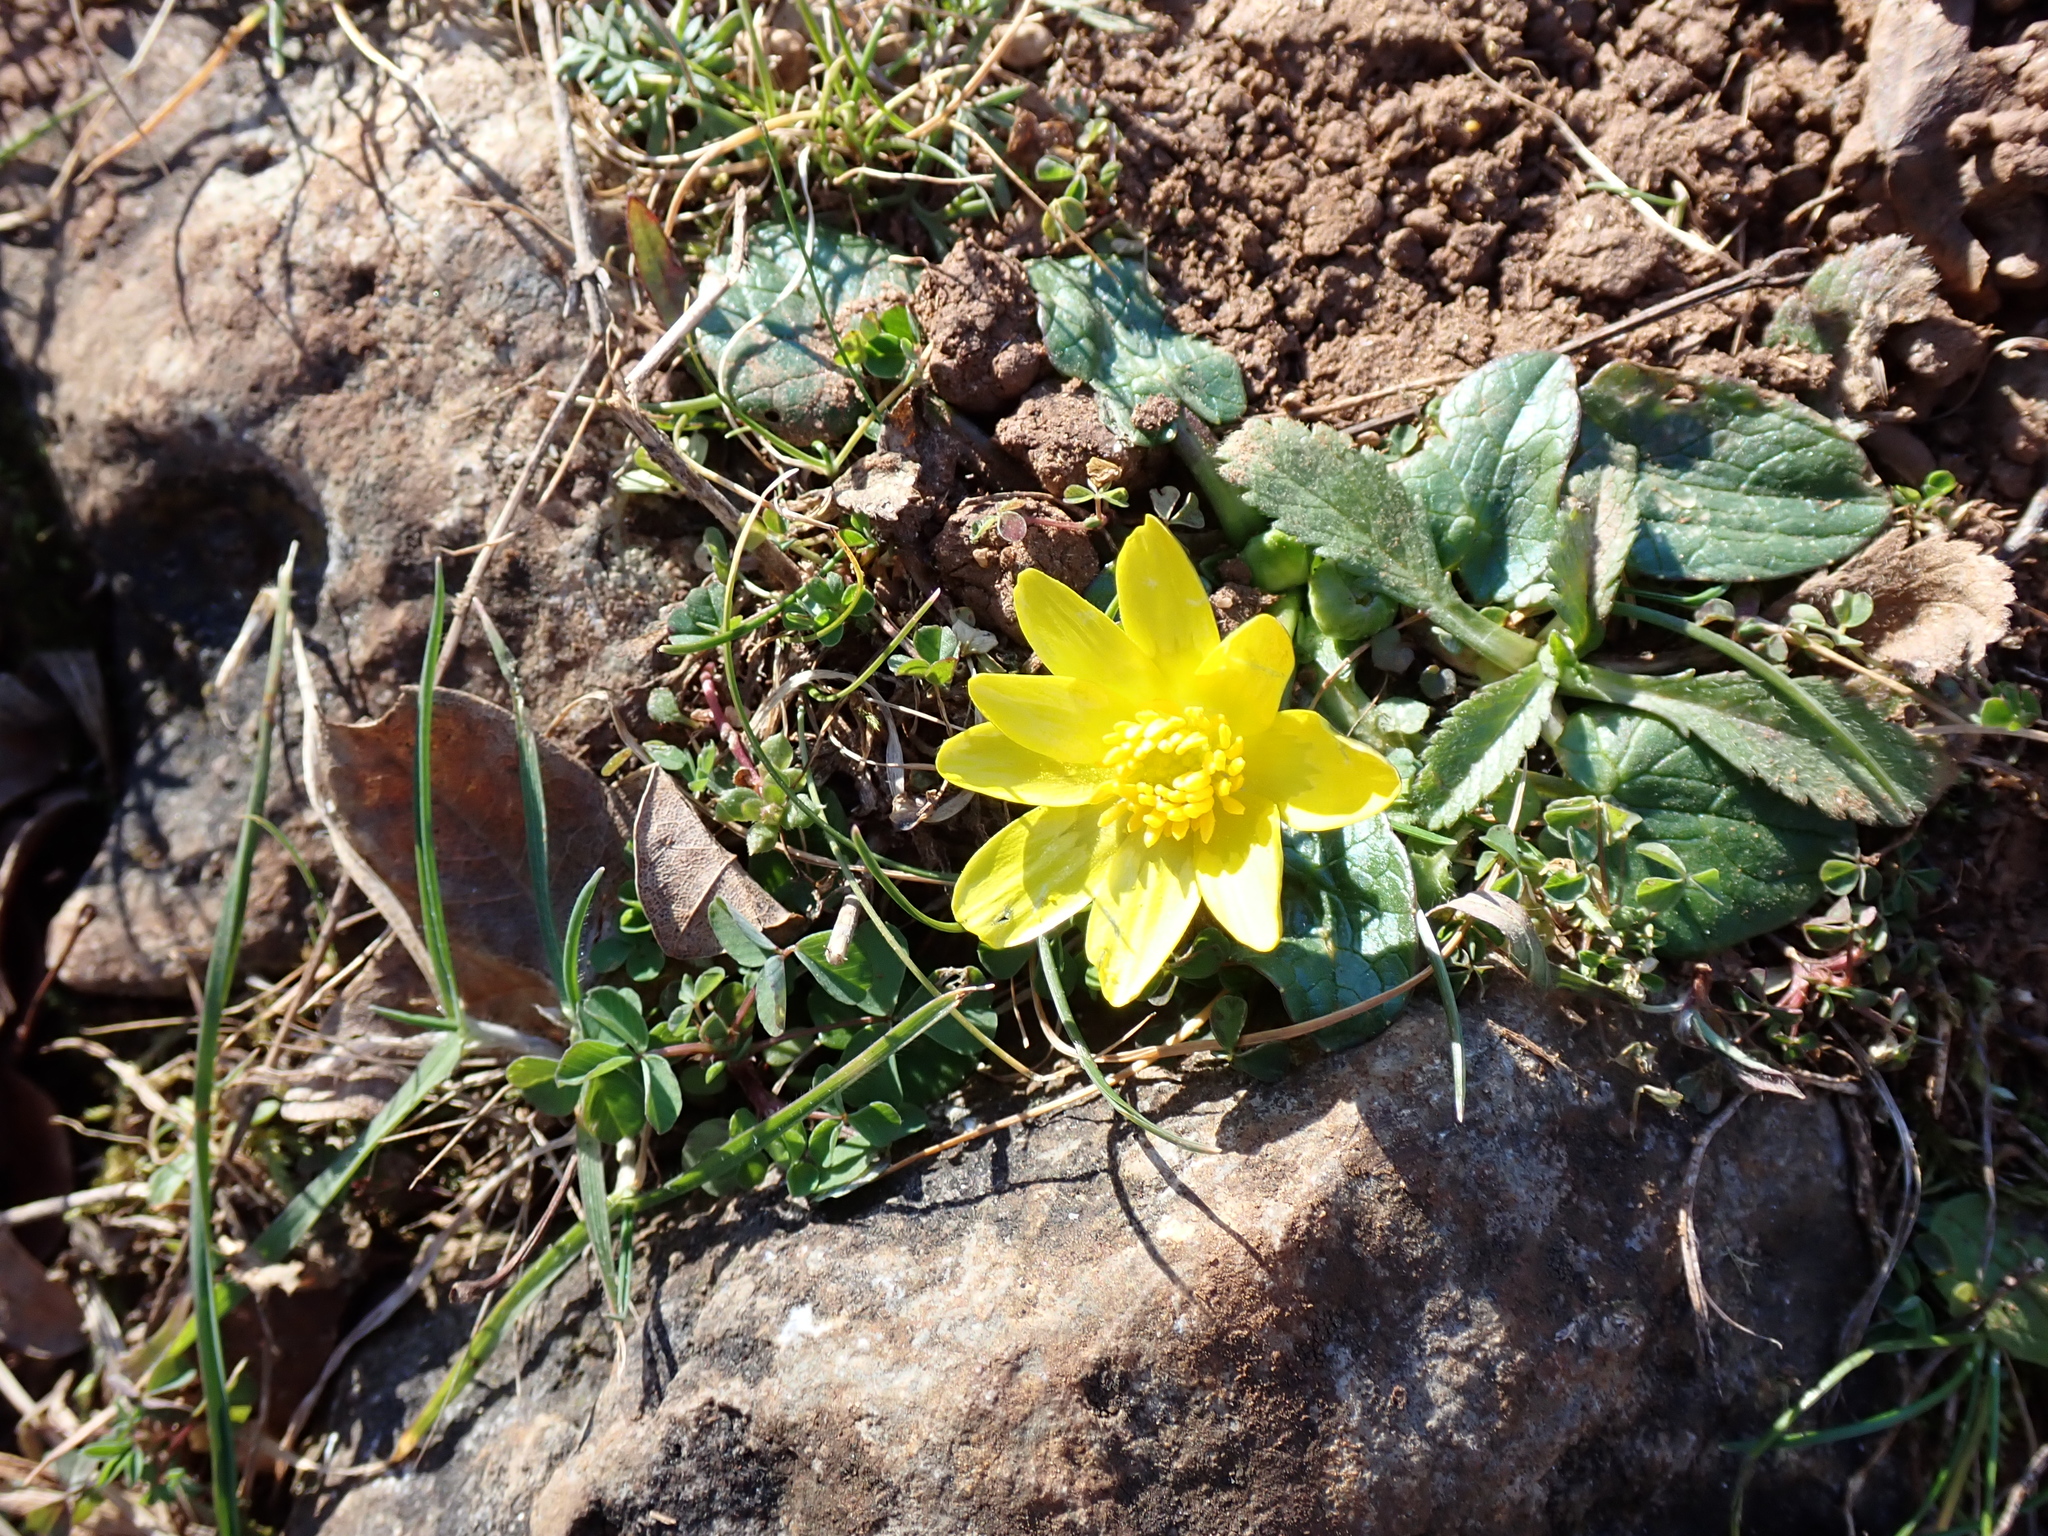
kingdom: Plantae
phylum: Tracheophyta
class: Magnoliopsida
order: Ranunculales
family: Ranunculaceae
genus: Ficaria
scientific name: Ficaria verna
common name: Lesser celandine
